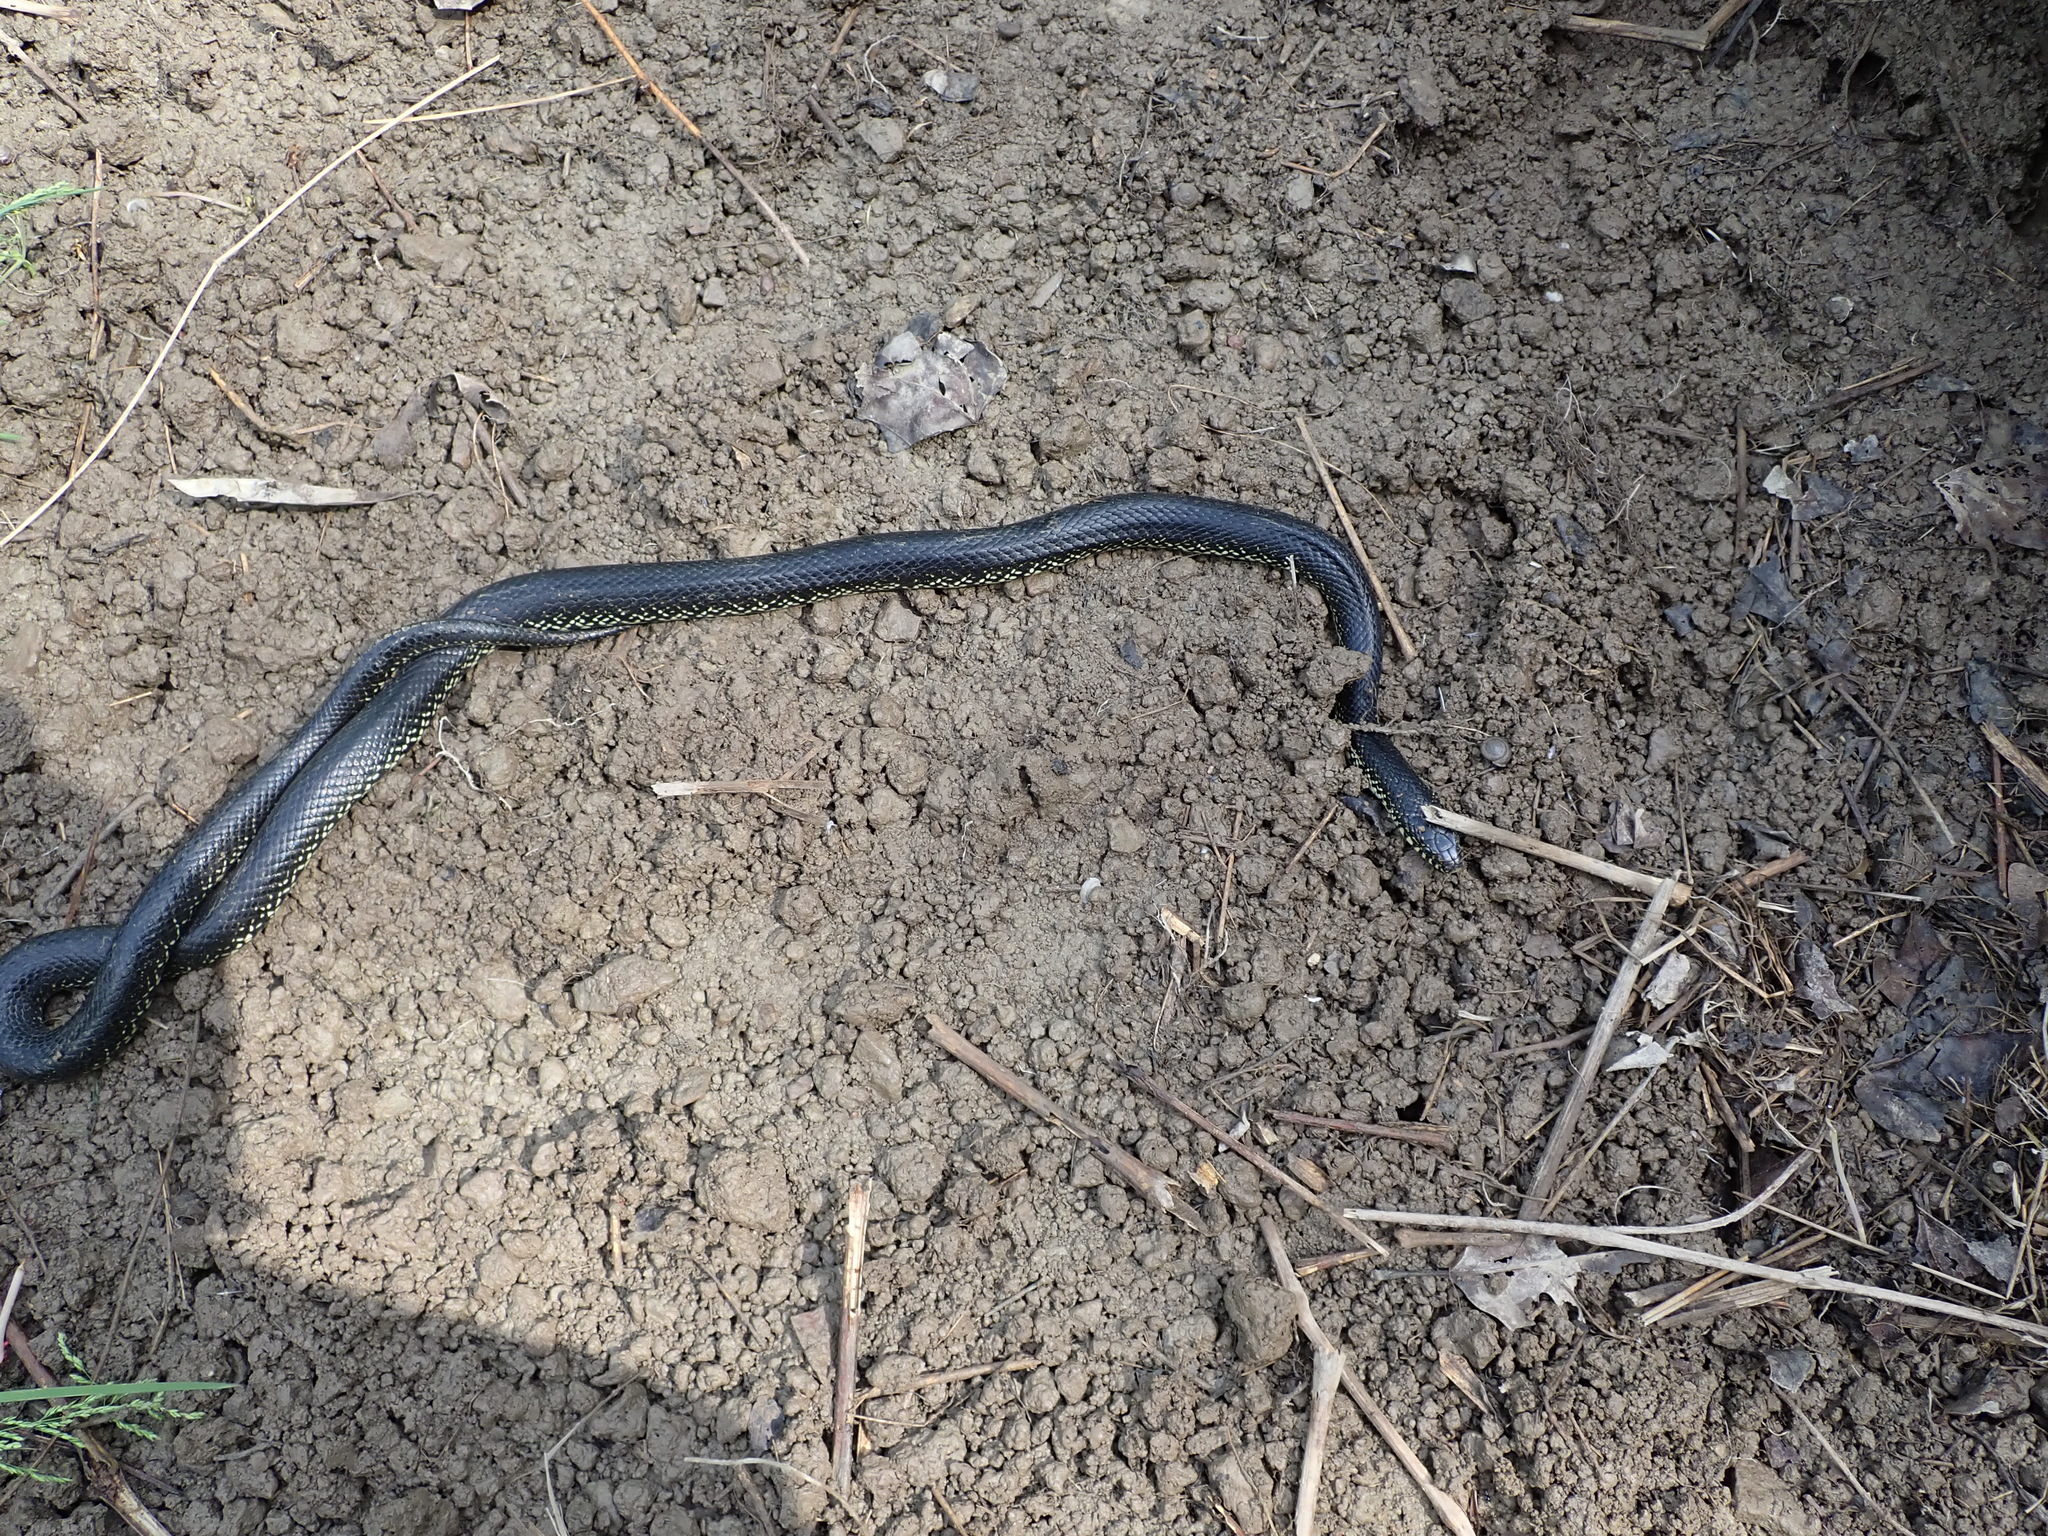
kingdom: Animalia
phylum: Chordata
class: Squamata
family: Colubridae
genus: Lampropeltis
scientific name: Lampropeltis nigra
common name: Black kingsnake
